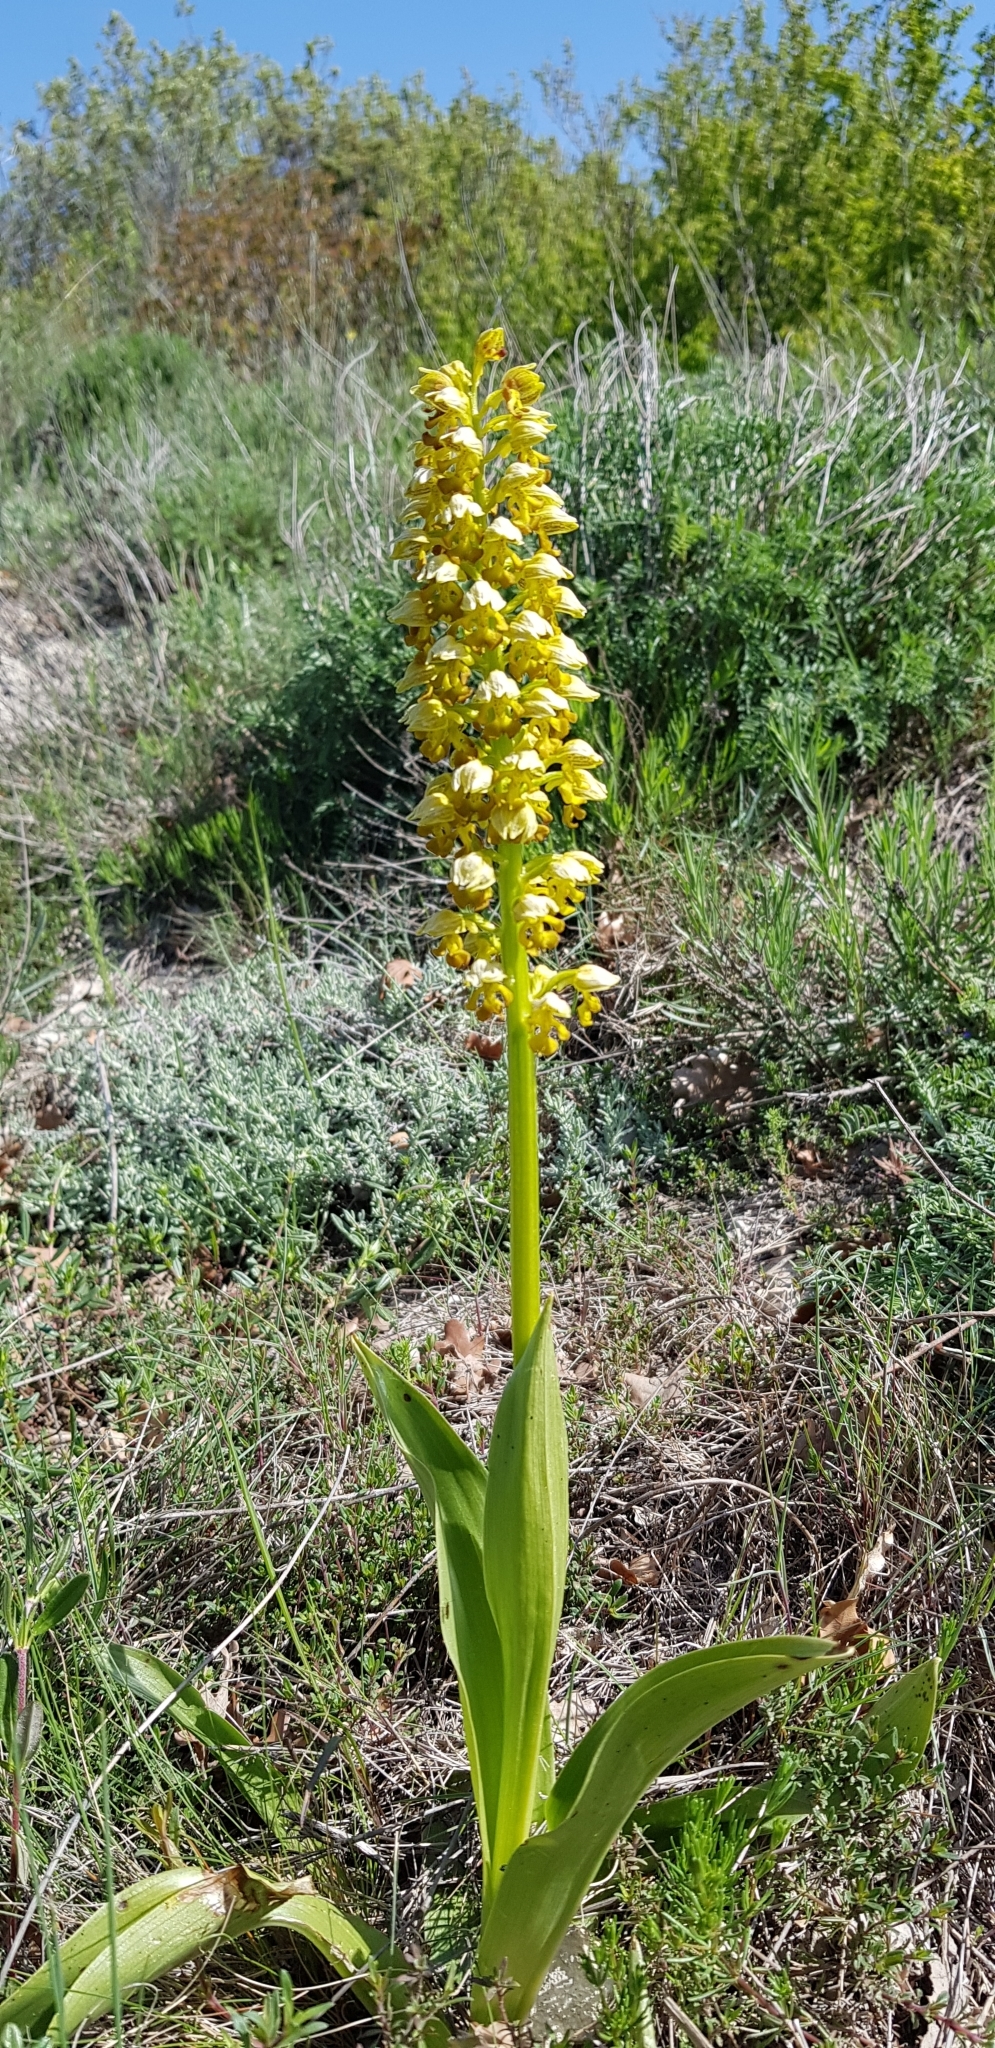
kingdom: Plantae
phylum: Tracheophyta
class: Liliopsida
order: Asparagales
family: Orchidaceae
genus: Orchis
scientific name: Orchis punctulata
